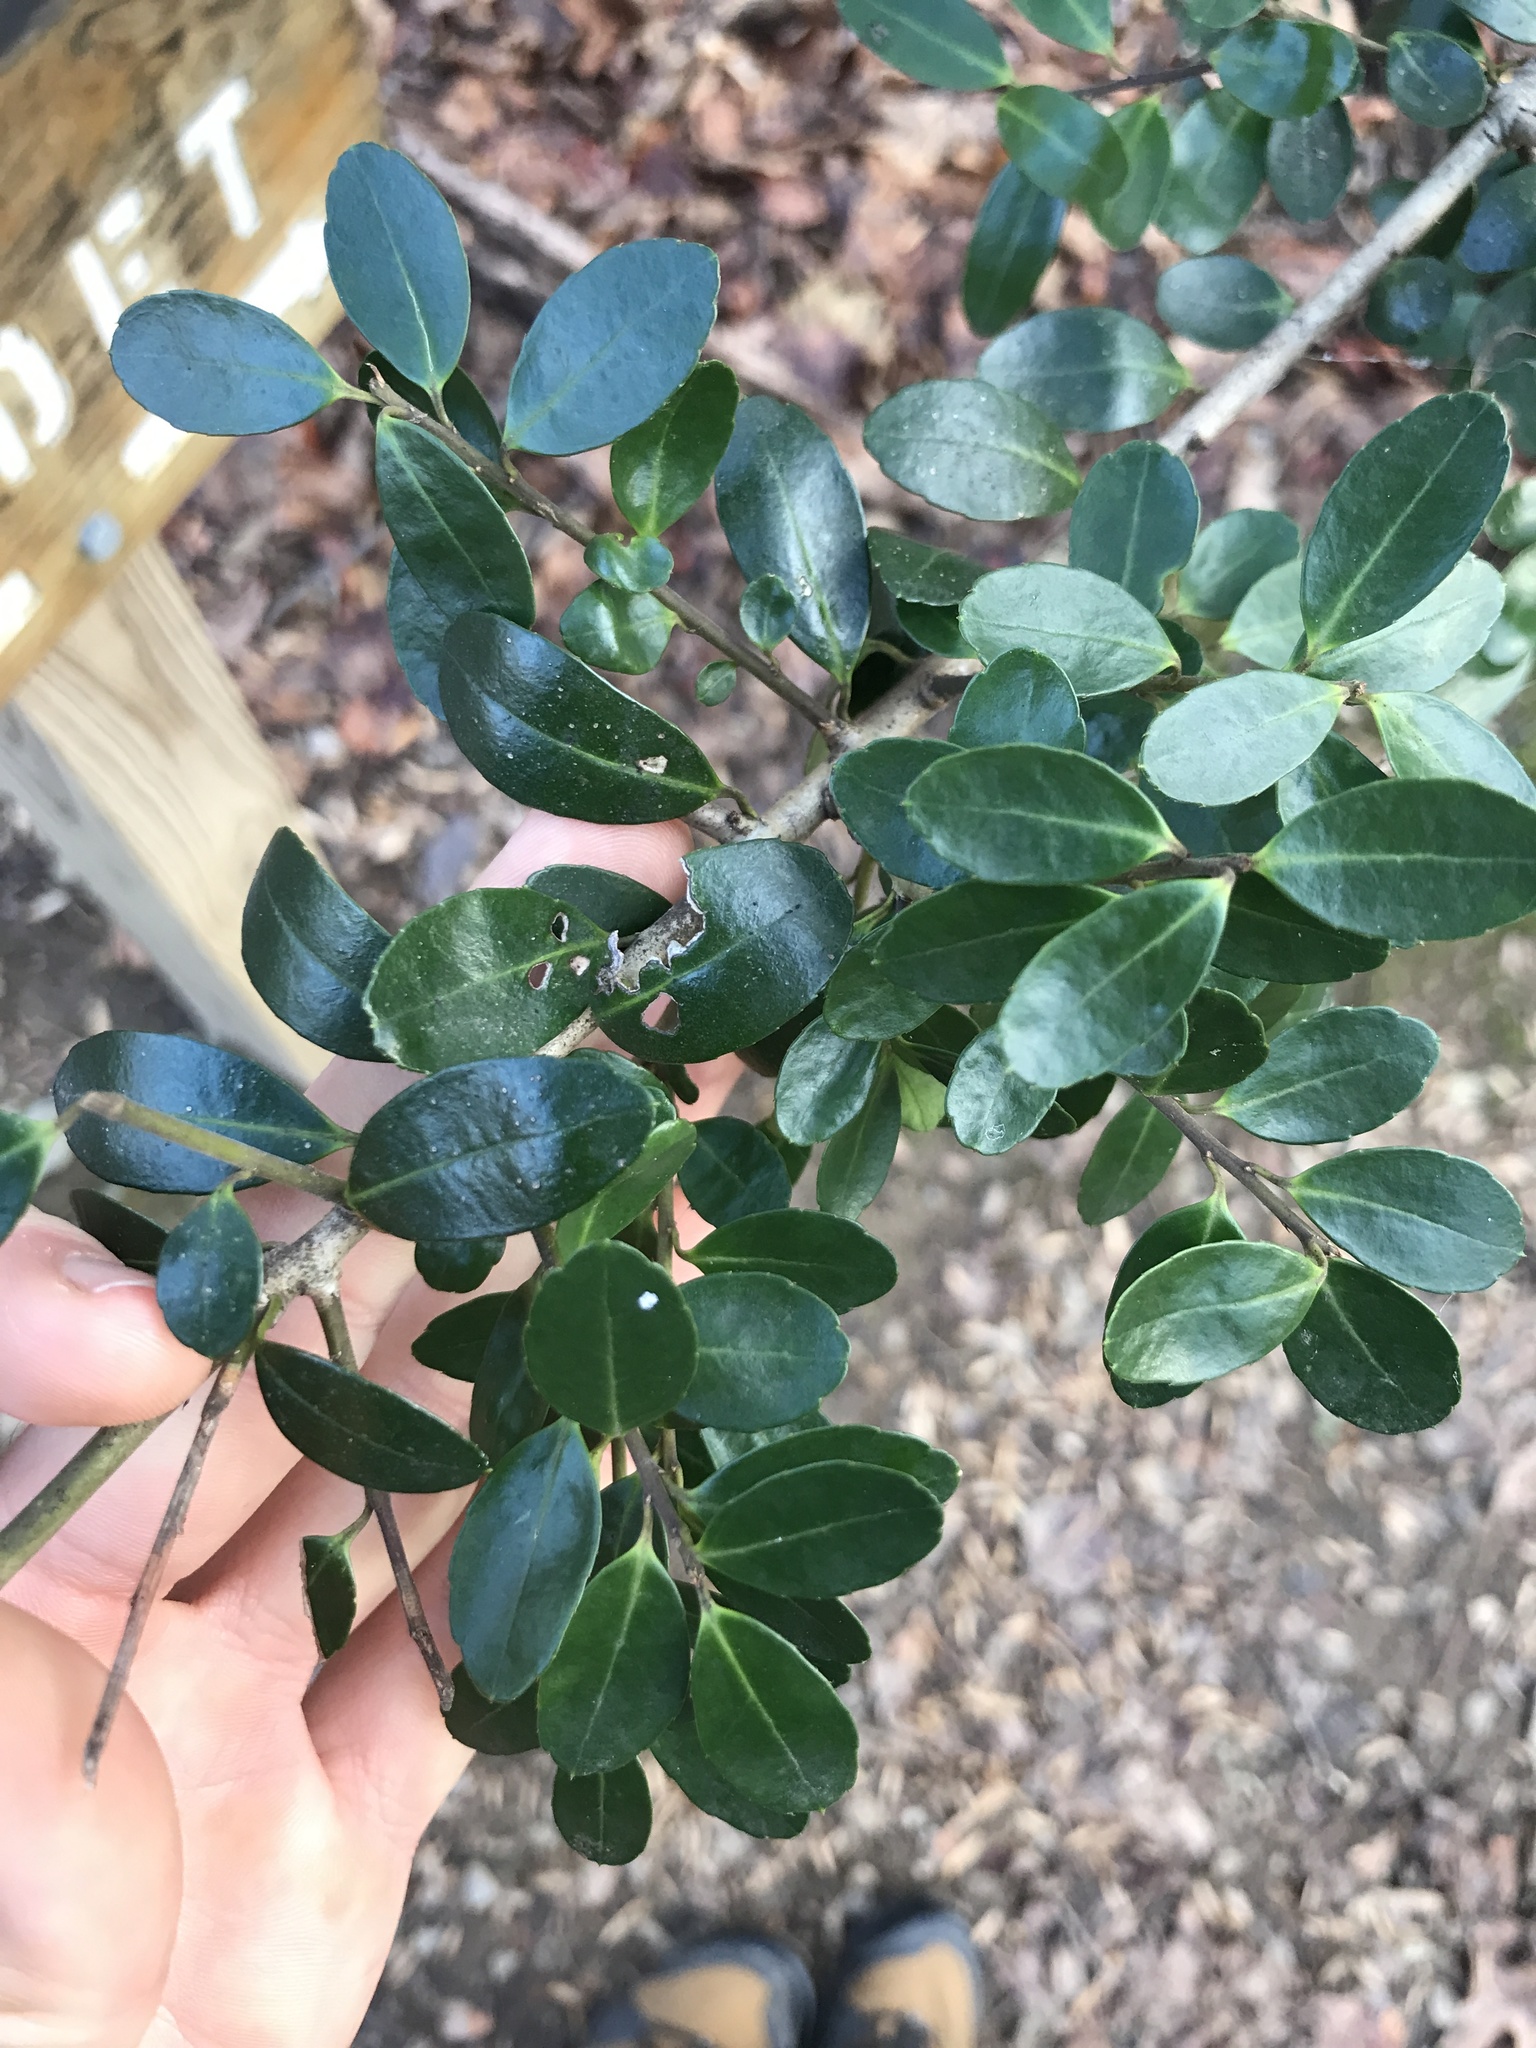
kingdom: Plantae
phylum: Tracheophyta
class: Magnoliopsida
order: Aquifoliales
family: Aquifoliaceae
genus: Ilex
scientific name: Ilex crenata
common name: Japanese holly
